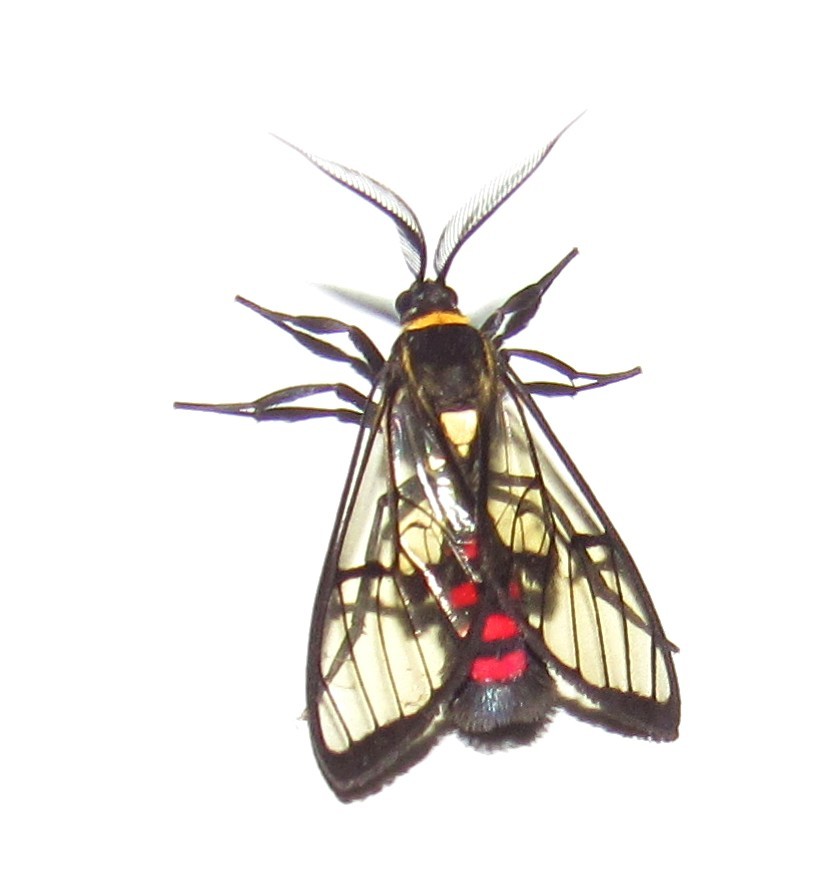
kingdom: Animalia
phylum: Arthropoda
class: Insecta
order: Lepidoptera
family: Erebidae
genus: Argyroeides
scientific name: Argyroeides sanguinea
